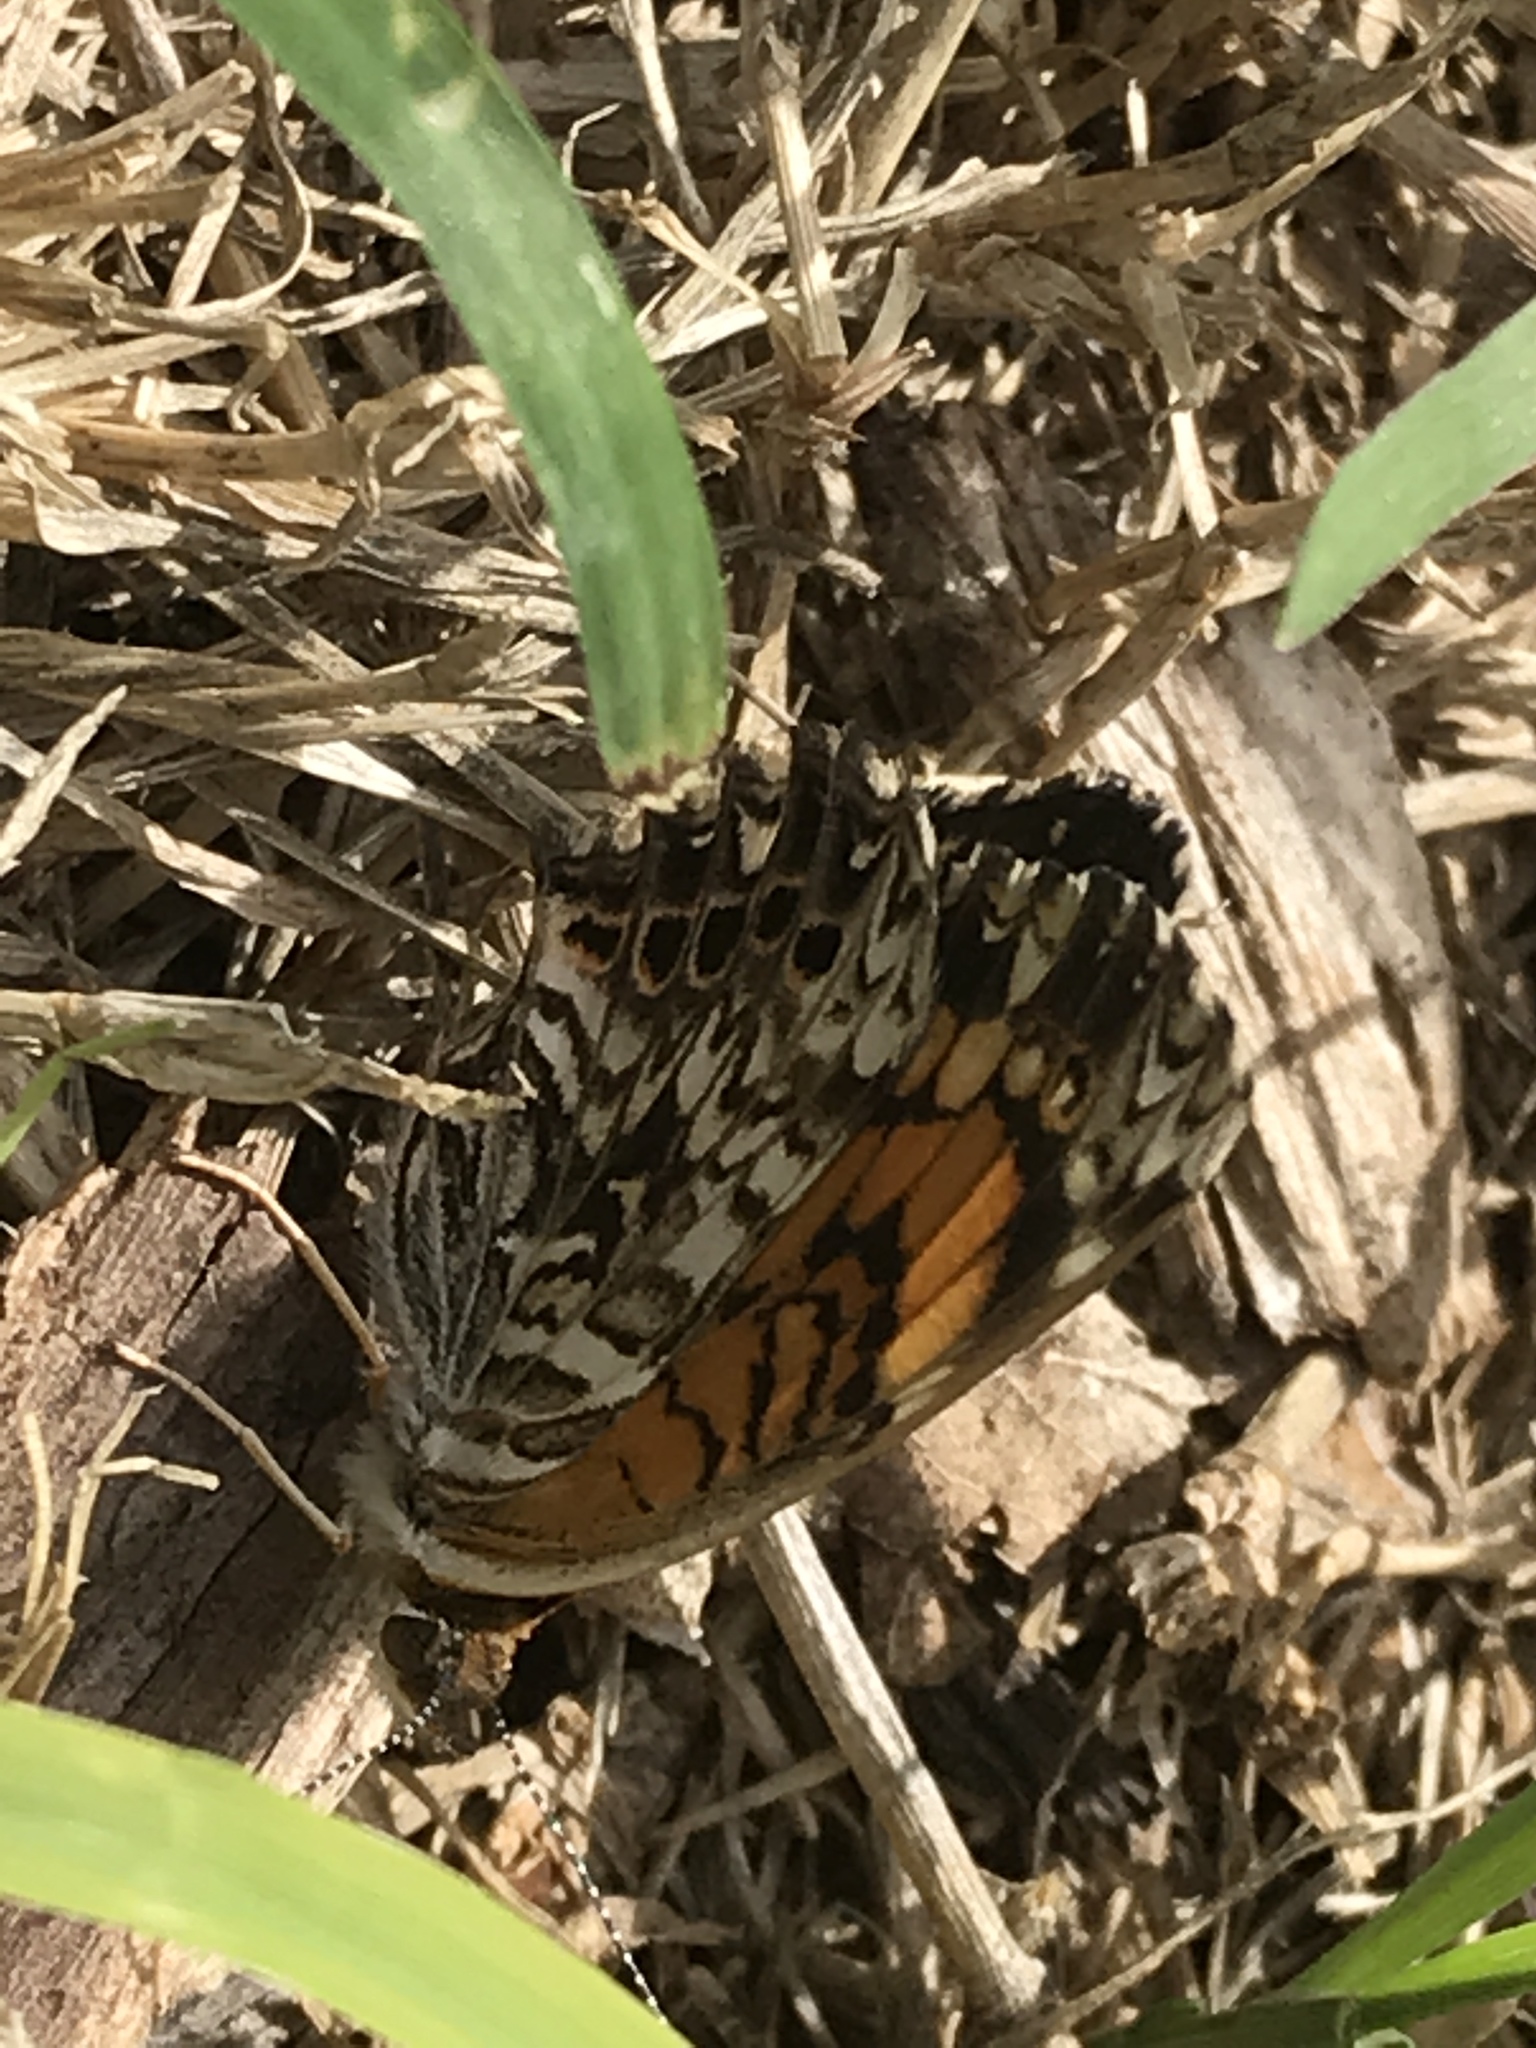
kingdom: Animalia
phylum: Arthropoda
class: Insecta
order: Lepidoptera
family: Nymphalidae
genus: Chlosyne
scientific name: Chlosyne gorgone
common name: Gorgone checkerspot
